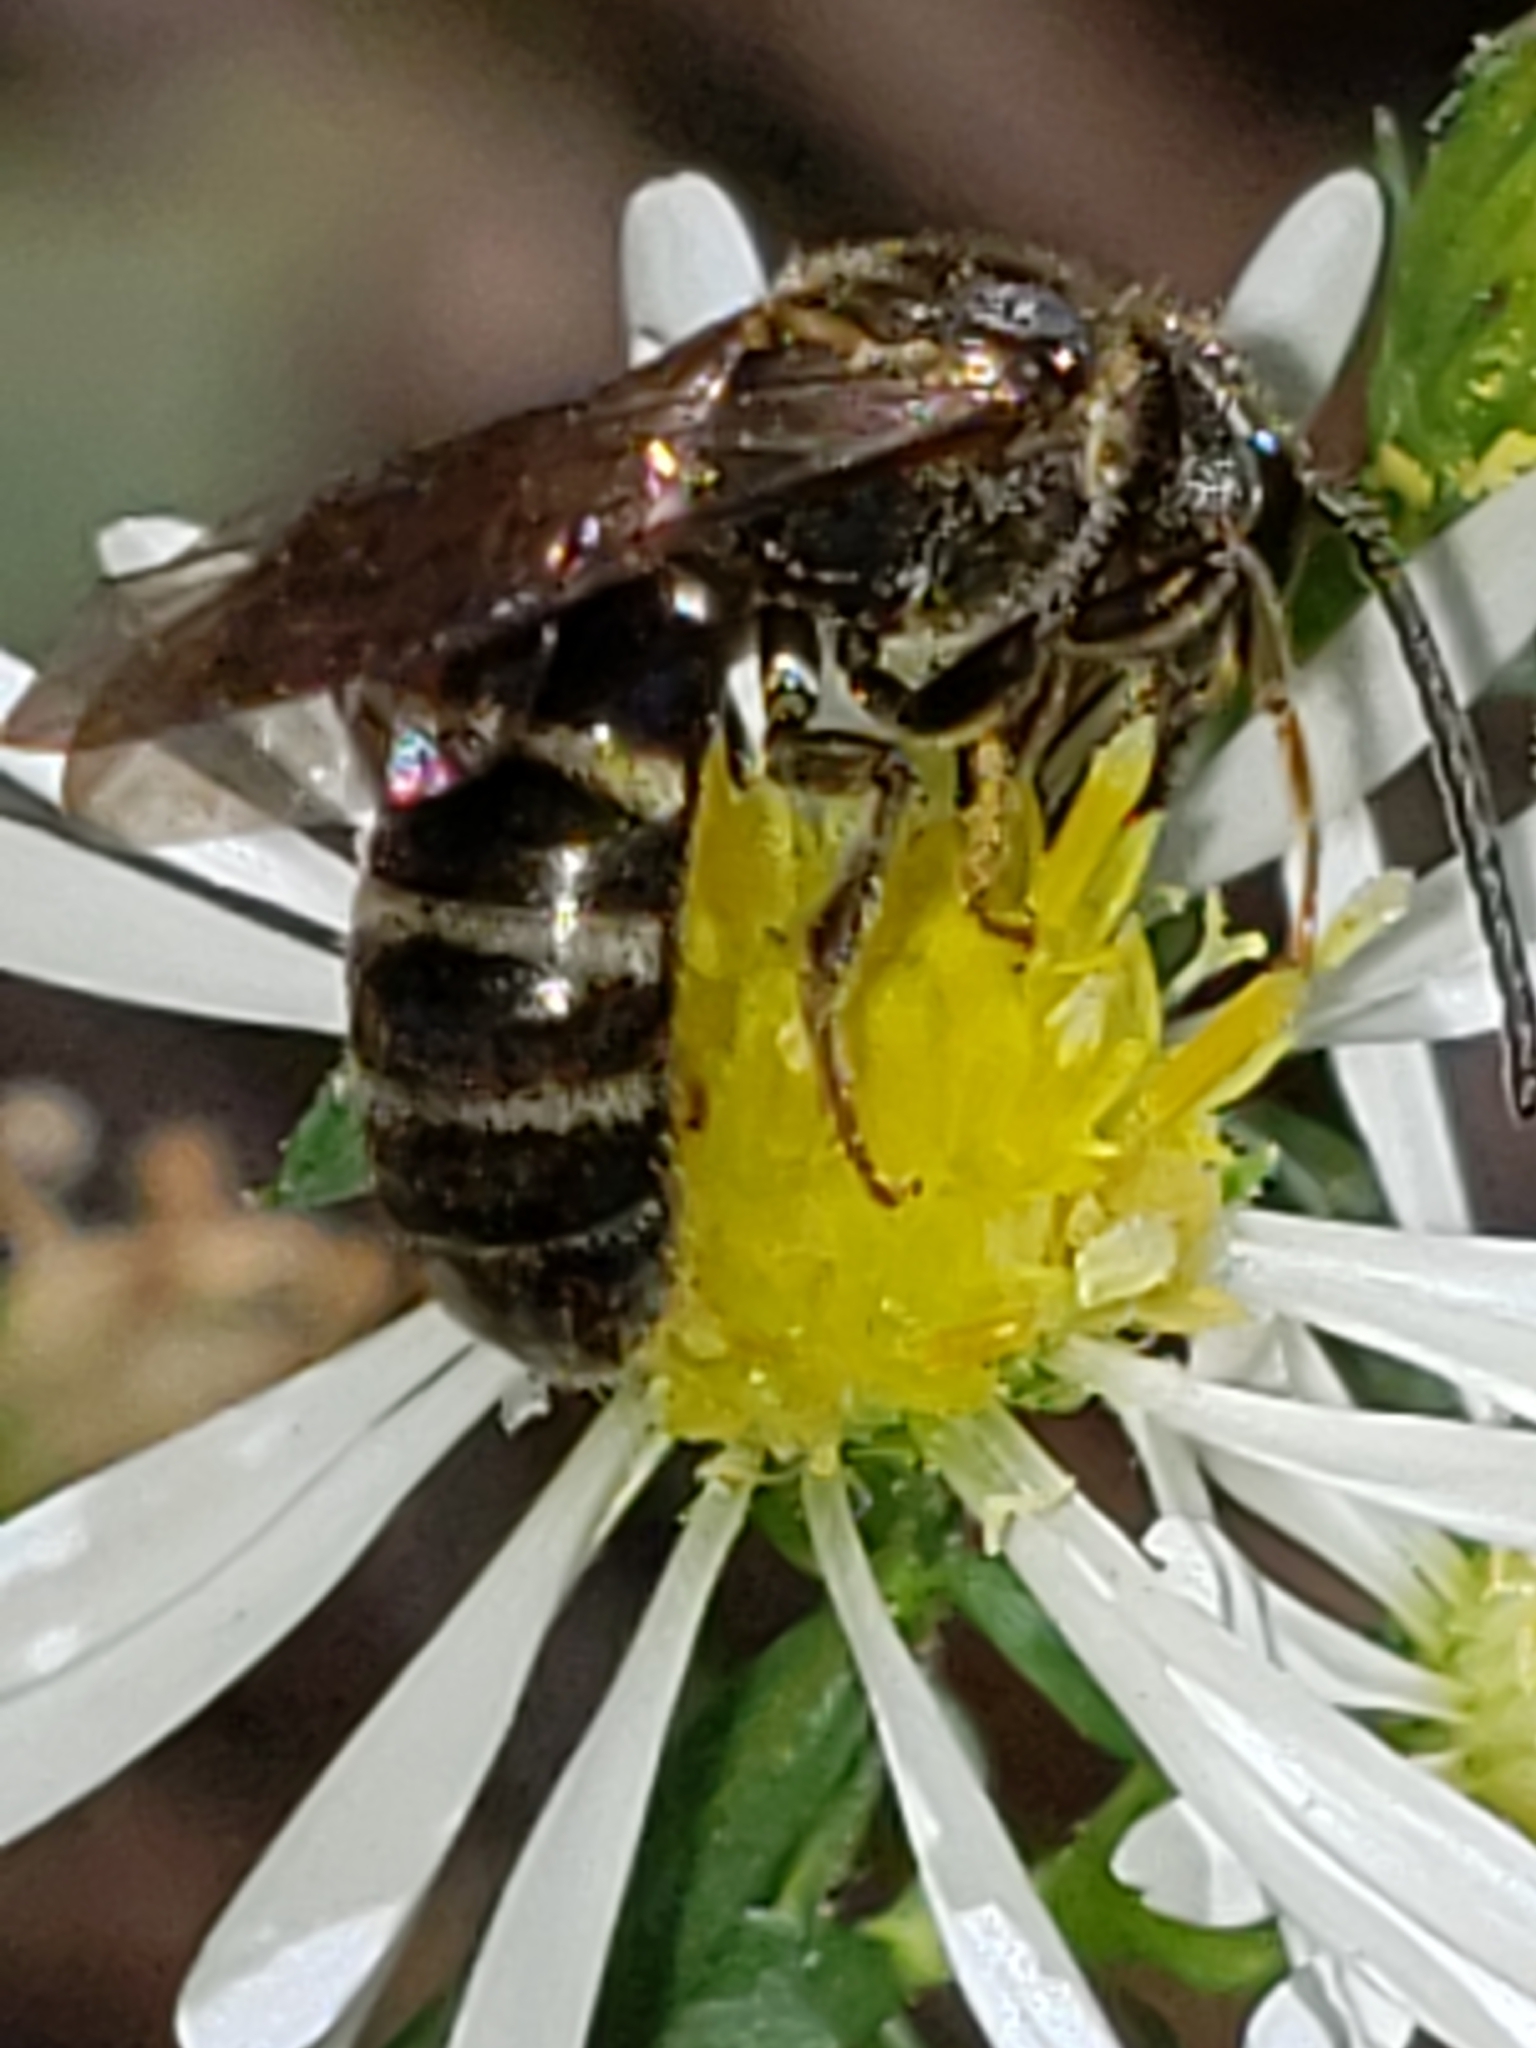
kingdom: Animalia
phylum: Arthropoda
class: Insecta
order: Hymenoptera
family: Halictidae
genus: Lasioglossum
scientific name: Lasioglossum fuscipenne
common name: Brown-winged sweat bee
